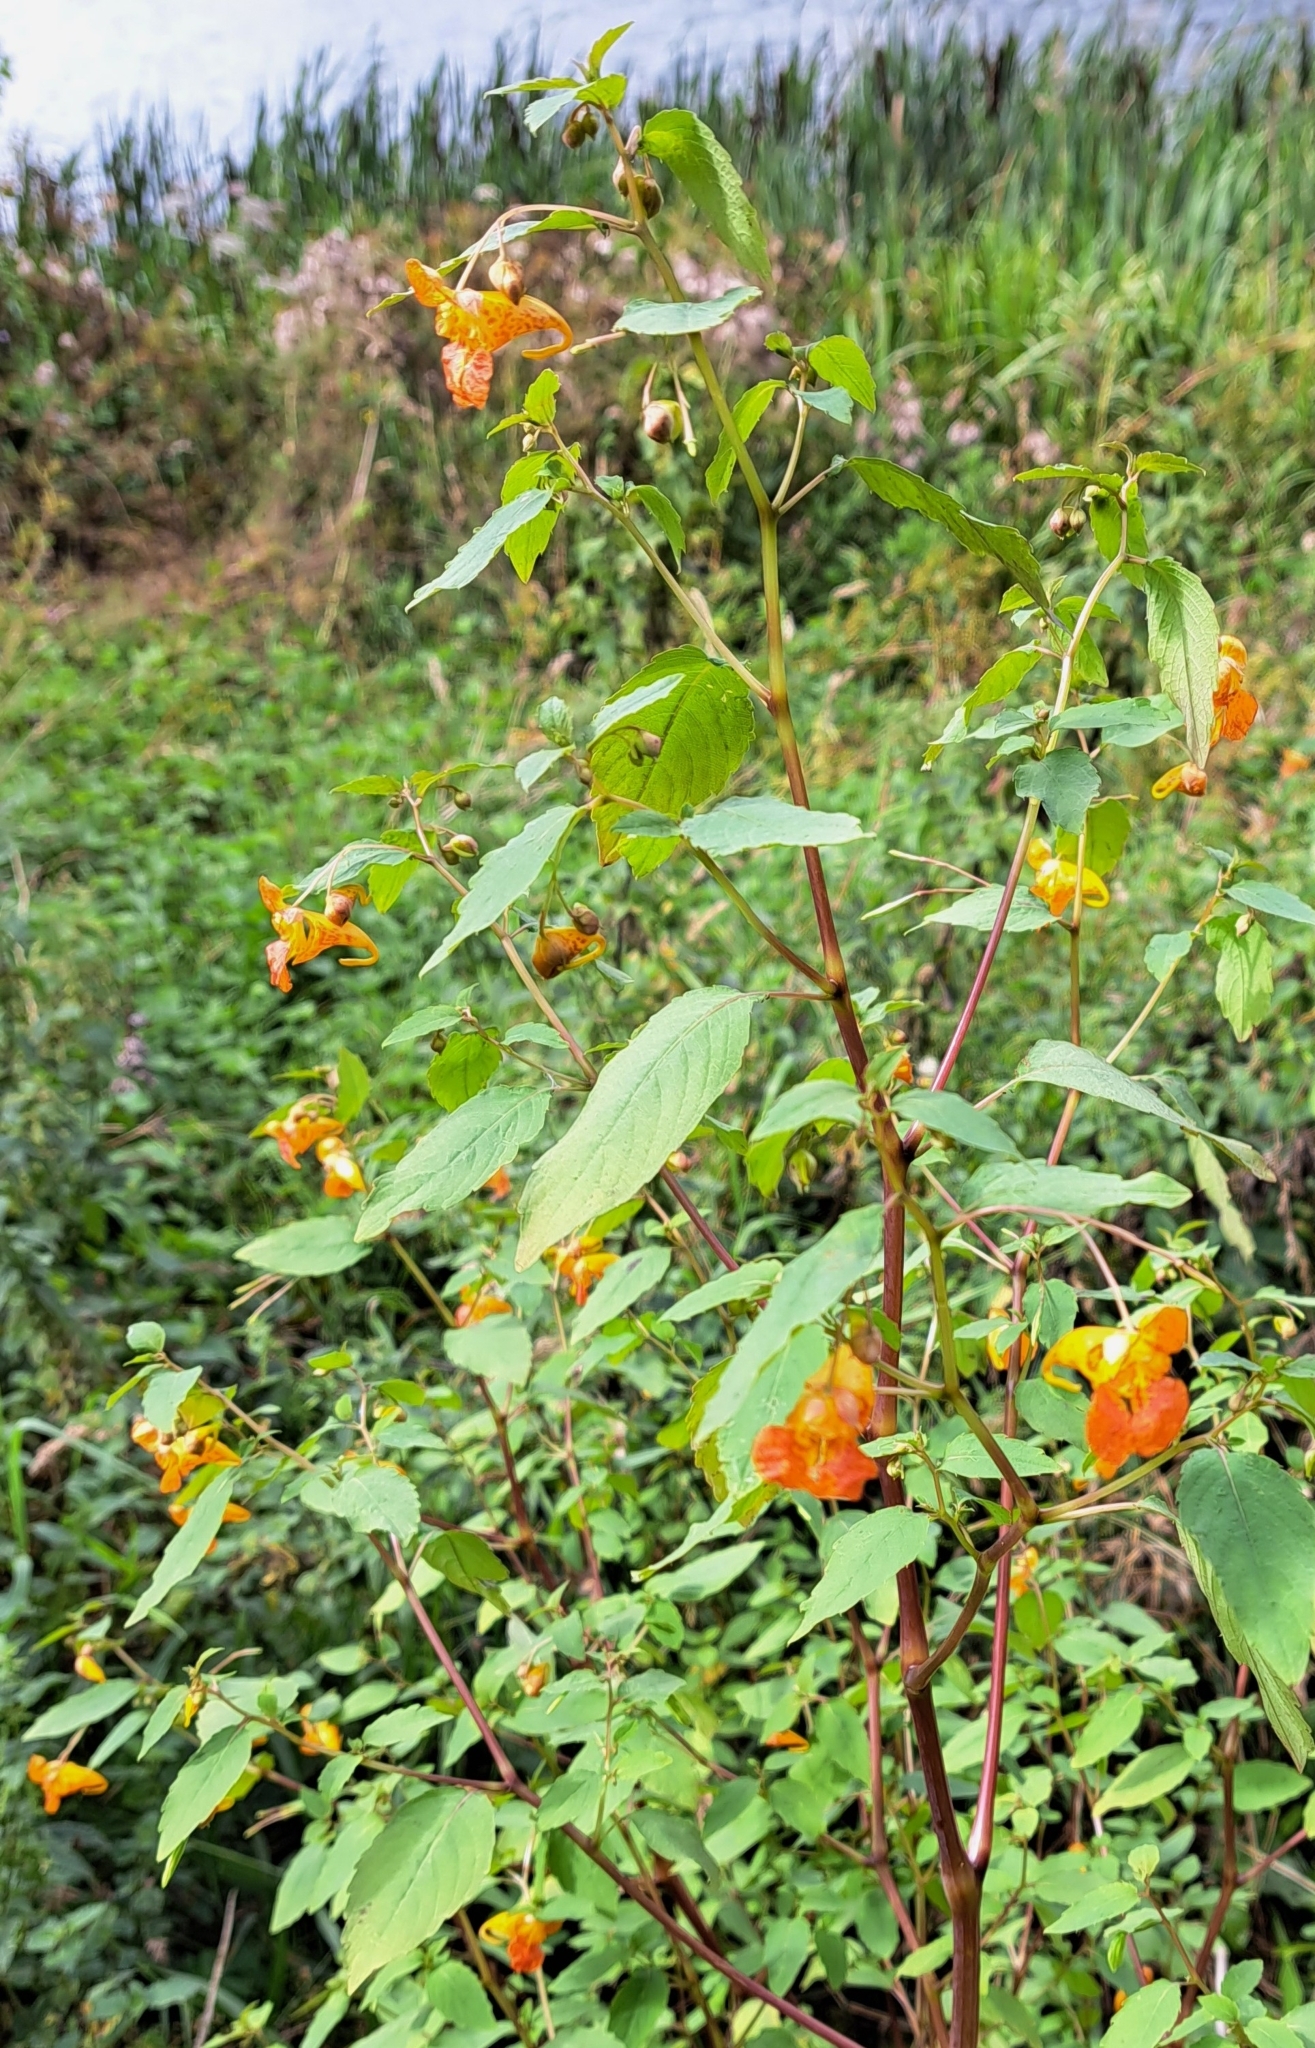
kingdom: Plantae
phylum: Tracheophyta
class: Magnoliopsida
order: Ericales
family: Balsaminaceae
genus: Impatiens
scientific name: Impatiens capensis
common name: Orange balsam
